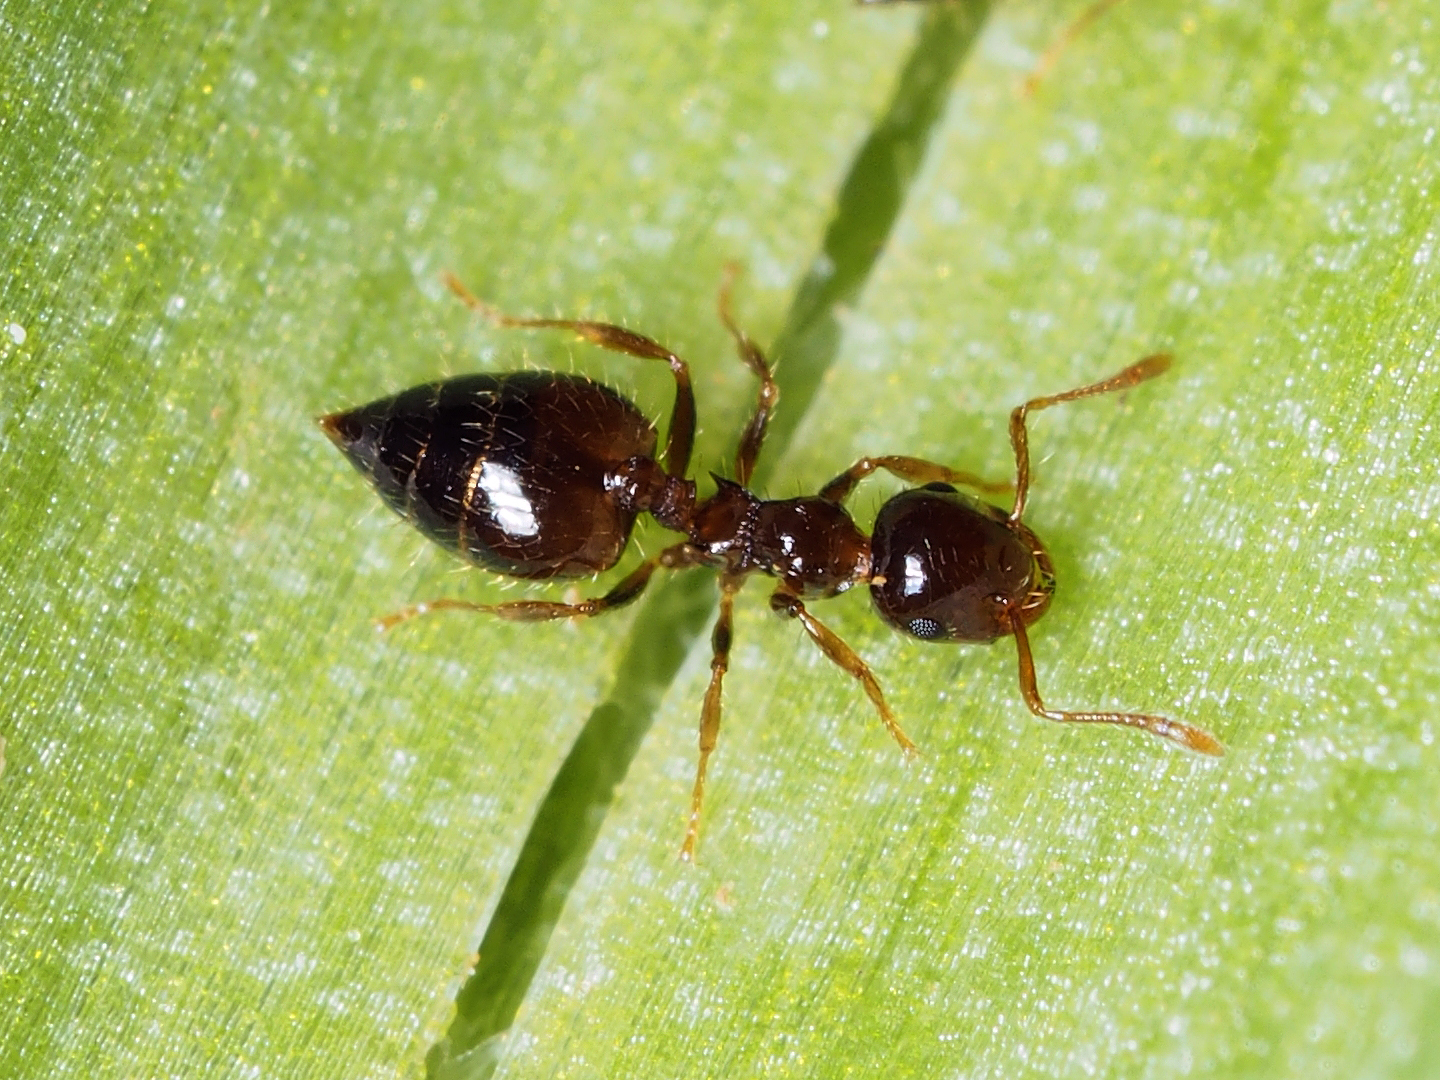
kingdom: Animalia
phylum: Arthropoda
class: Insecta
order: Hymenoptera
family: Formicidae
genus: Crematogaster
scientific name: Crematogaster sordidula
